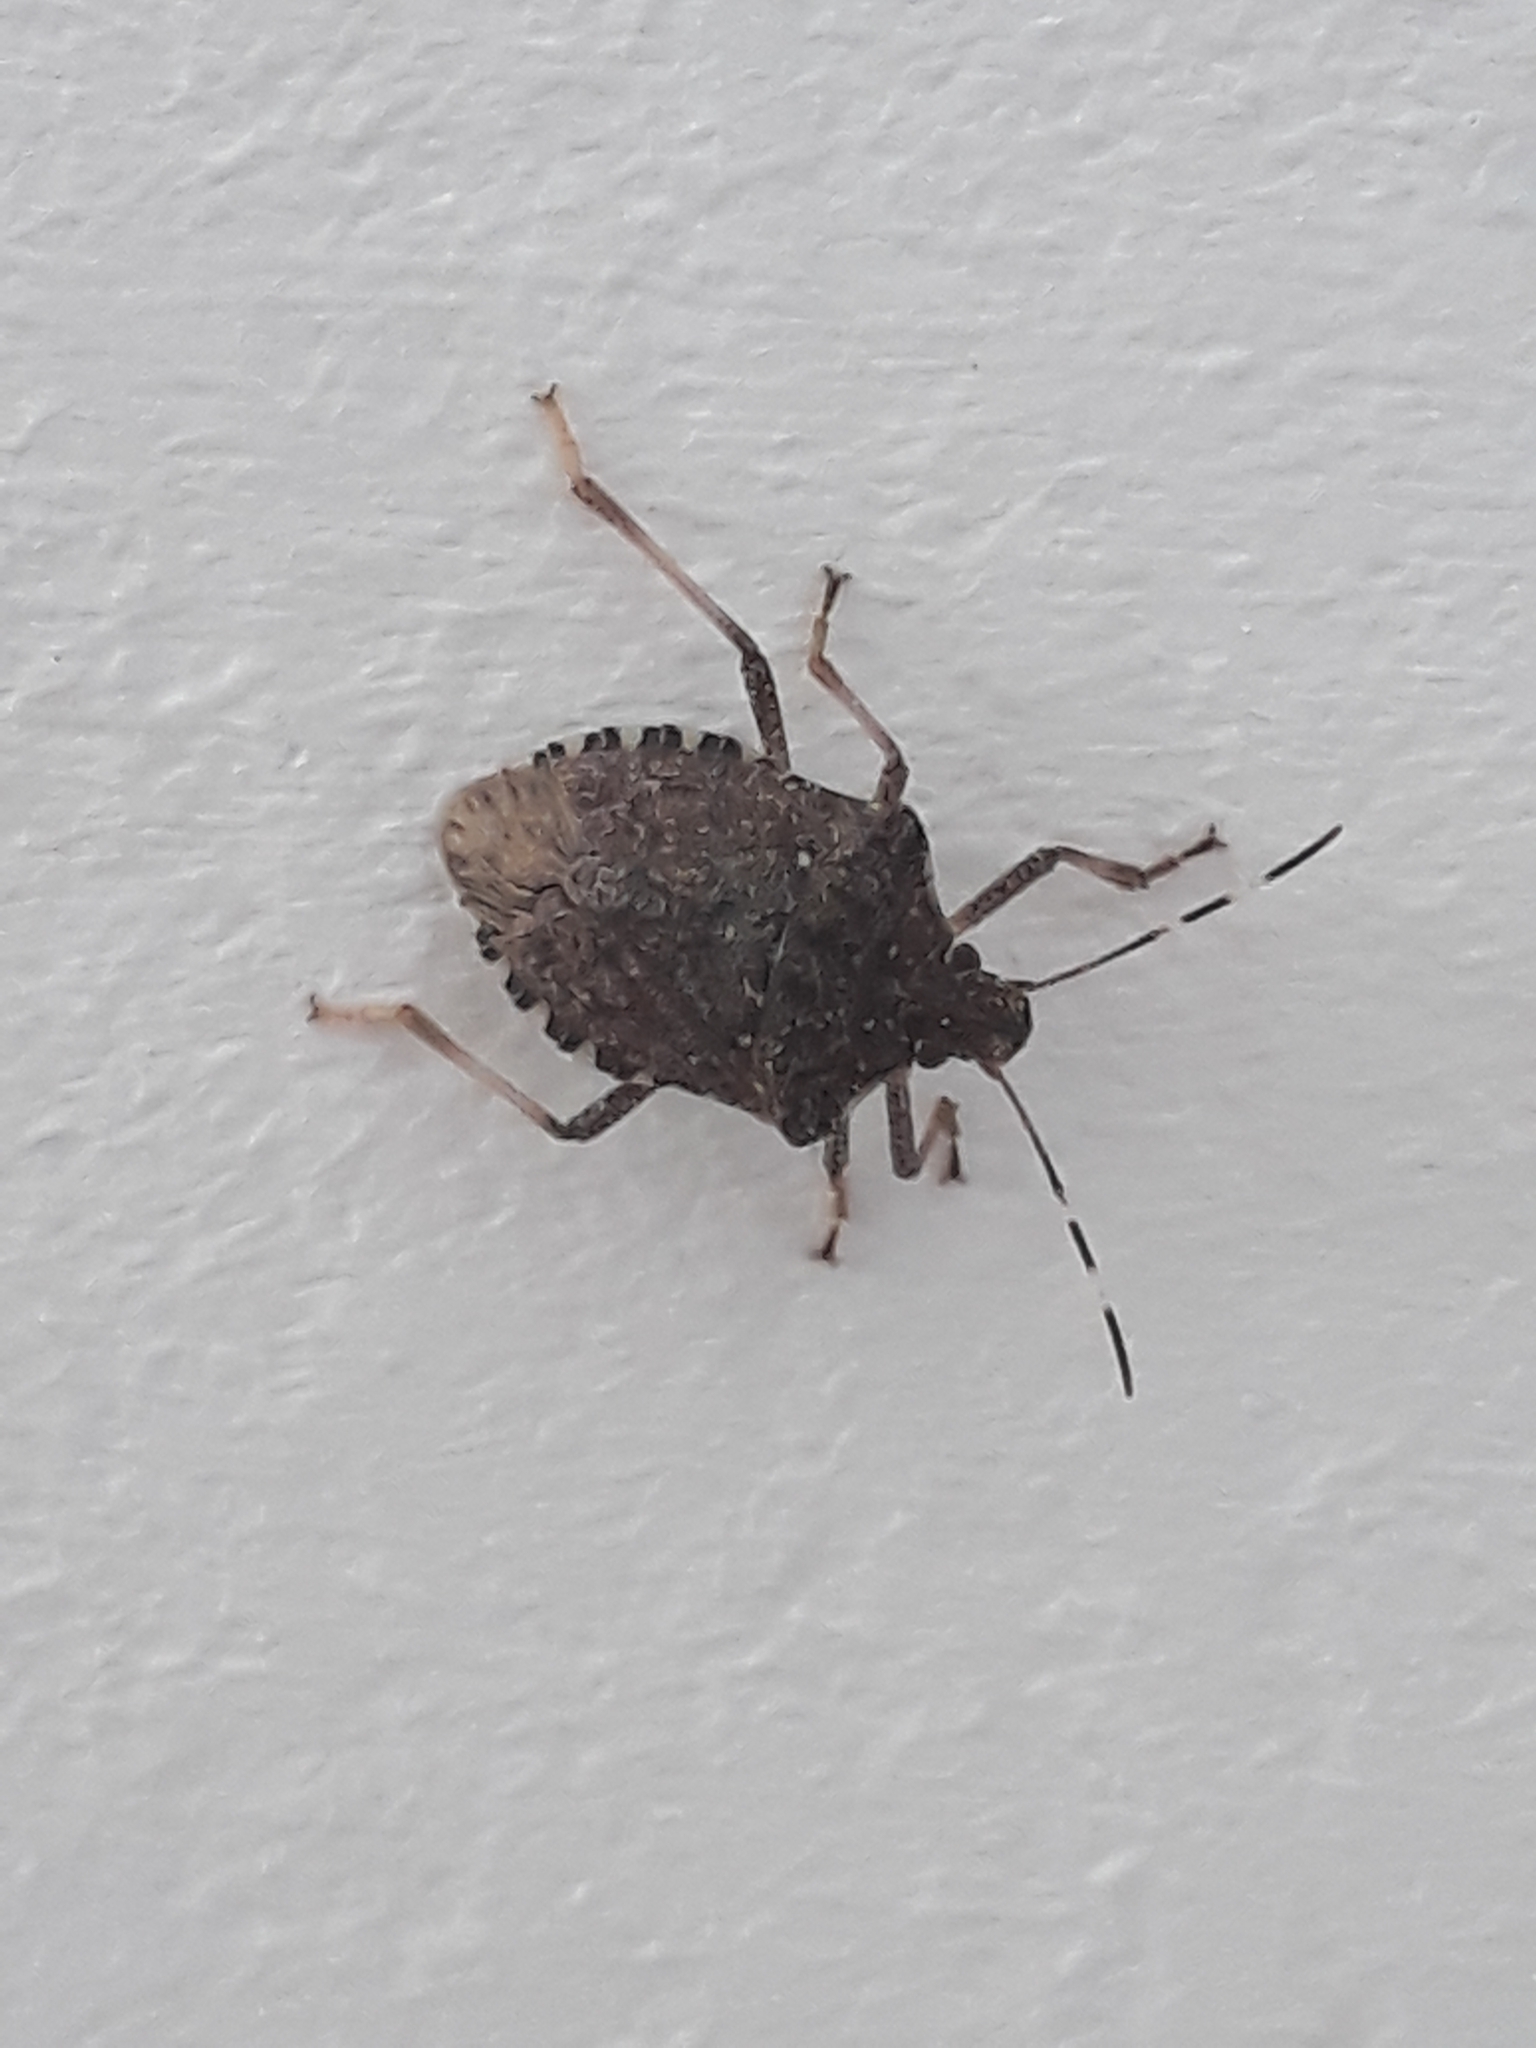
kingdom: Animalia
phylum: Arthropoda
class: Insecta
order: Hemiptera
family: Pentatomidae
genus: Halyomorpha
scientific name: Halyomorpha halys
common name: Brown marmorated stink bug
